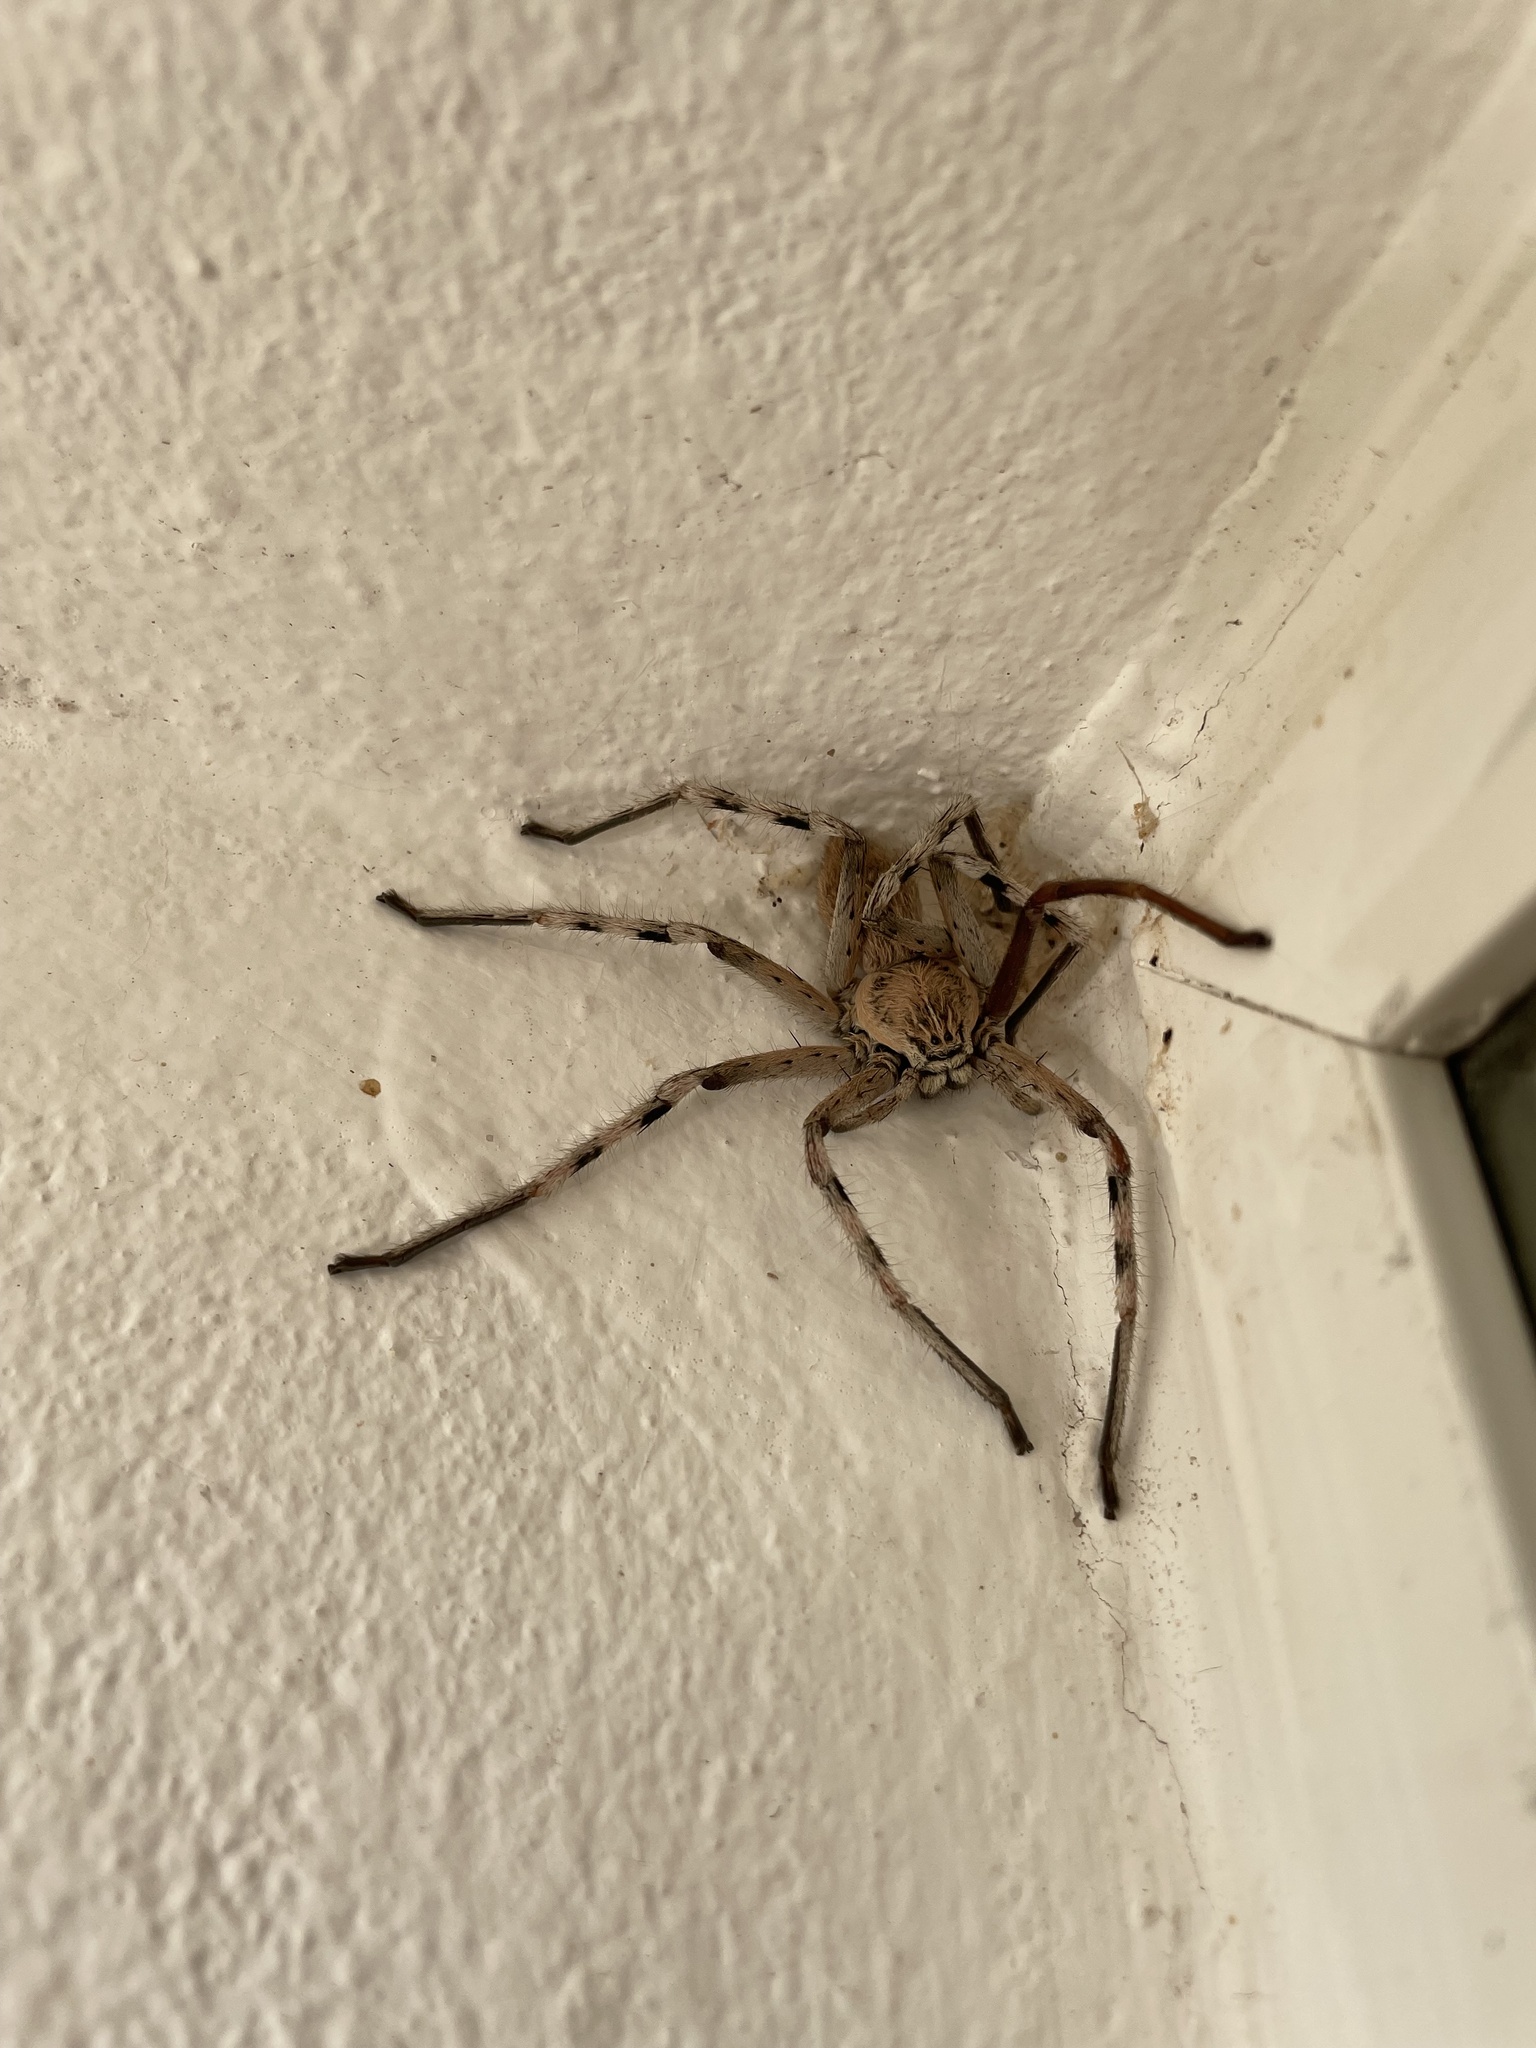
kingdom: Animalia
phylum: Arthropoda
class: Arachnida
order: Araneae
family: Sparassidae
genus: Eusparassus
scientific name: Eusparassus oraniensis
